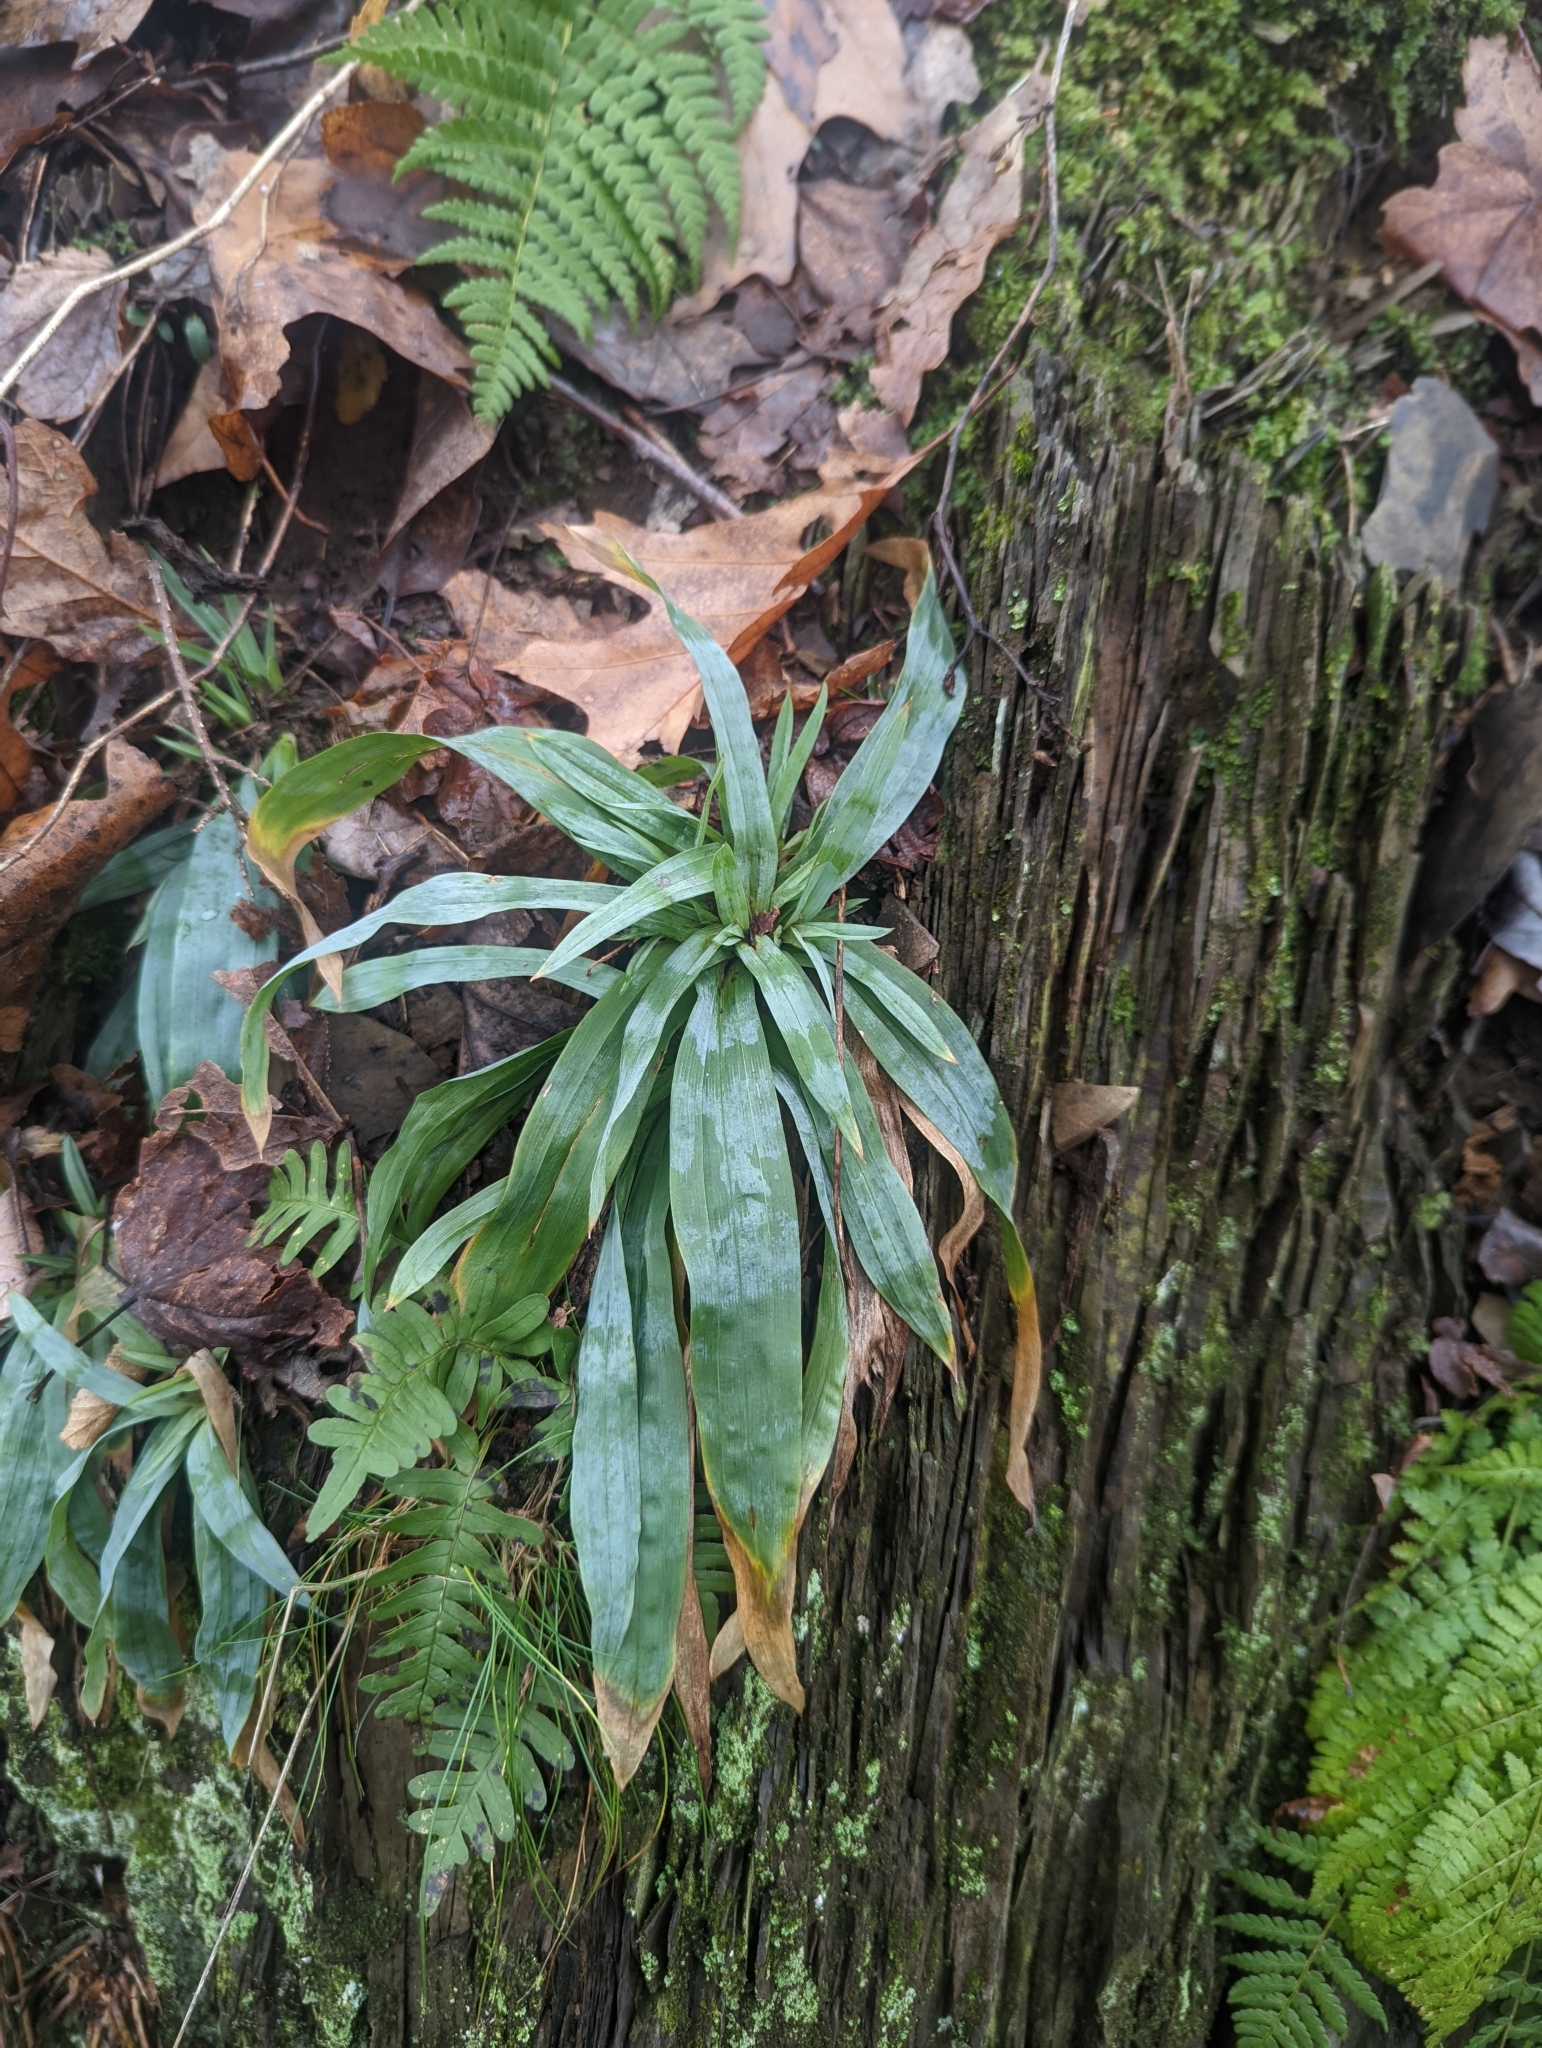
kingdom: Plantae
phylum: Tracheophyta
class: Liliopsida
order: Poales
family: Cyperaceae
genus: Carex
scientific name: Carex platyphylla
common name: Broad-leaved sedge
